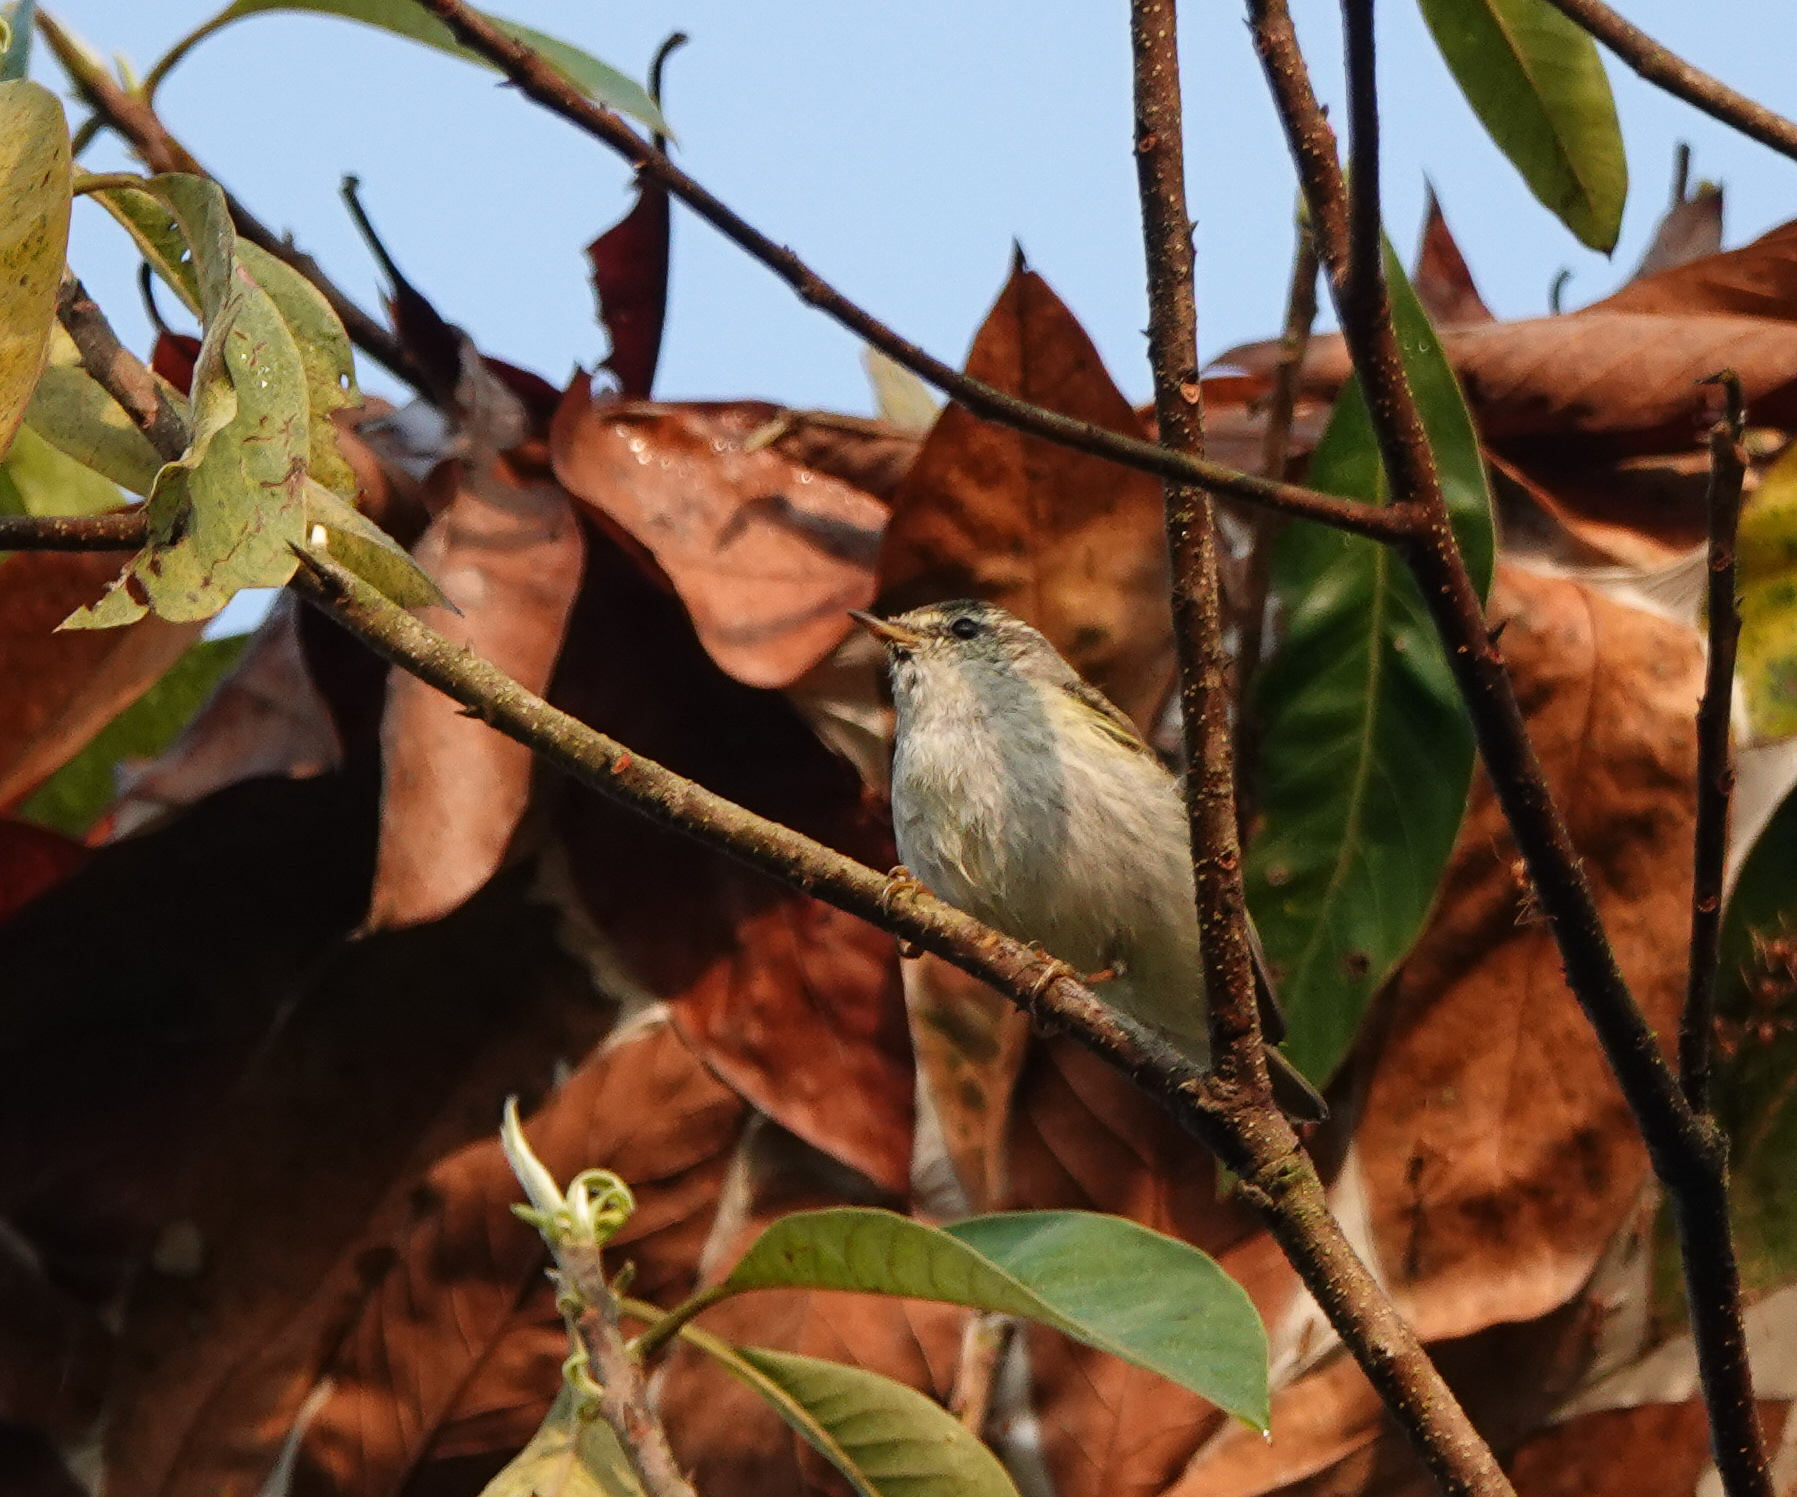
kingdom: Animalia
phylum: Chordata
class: Aves
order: Passeriformes
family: Phylloscopidae
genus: Phylloscopus
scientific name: Phylloscopus inornatus
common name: Yellow-browed warbler
